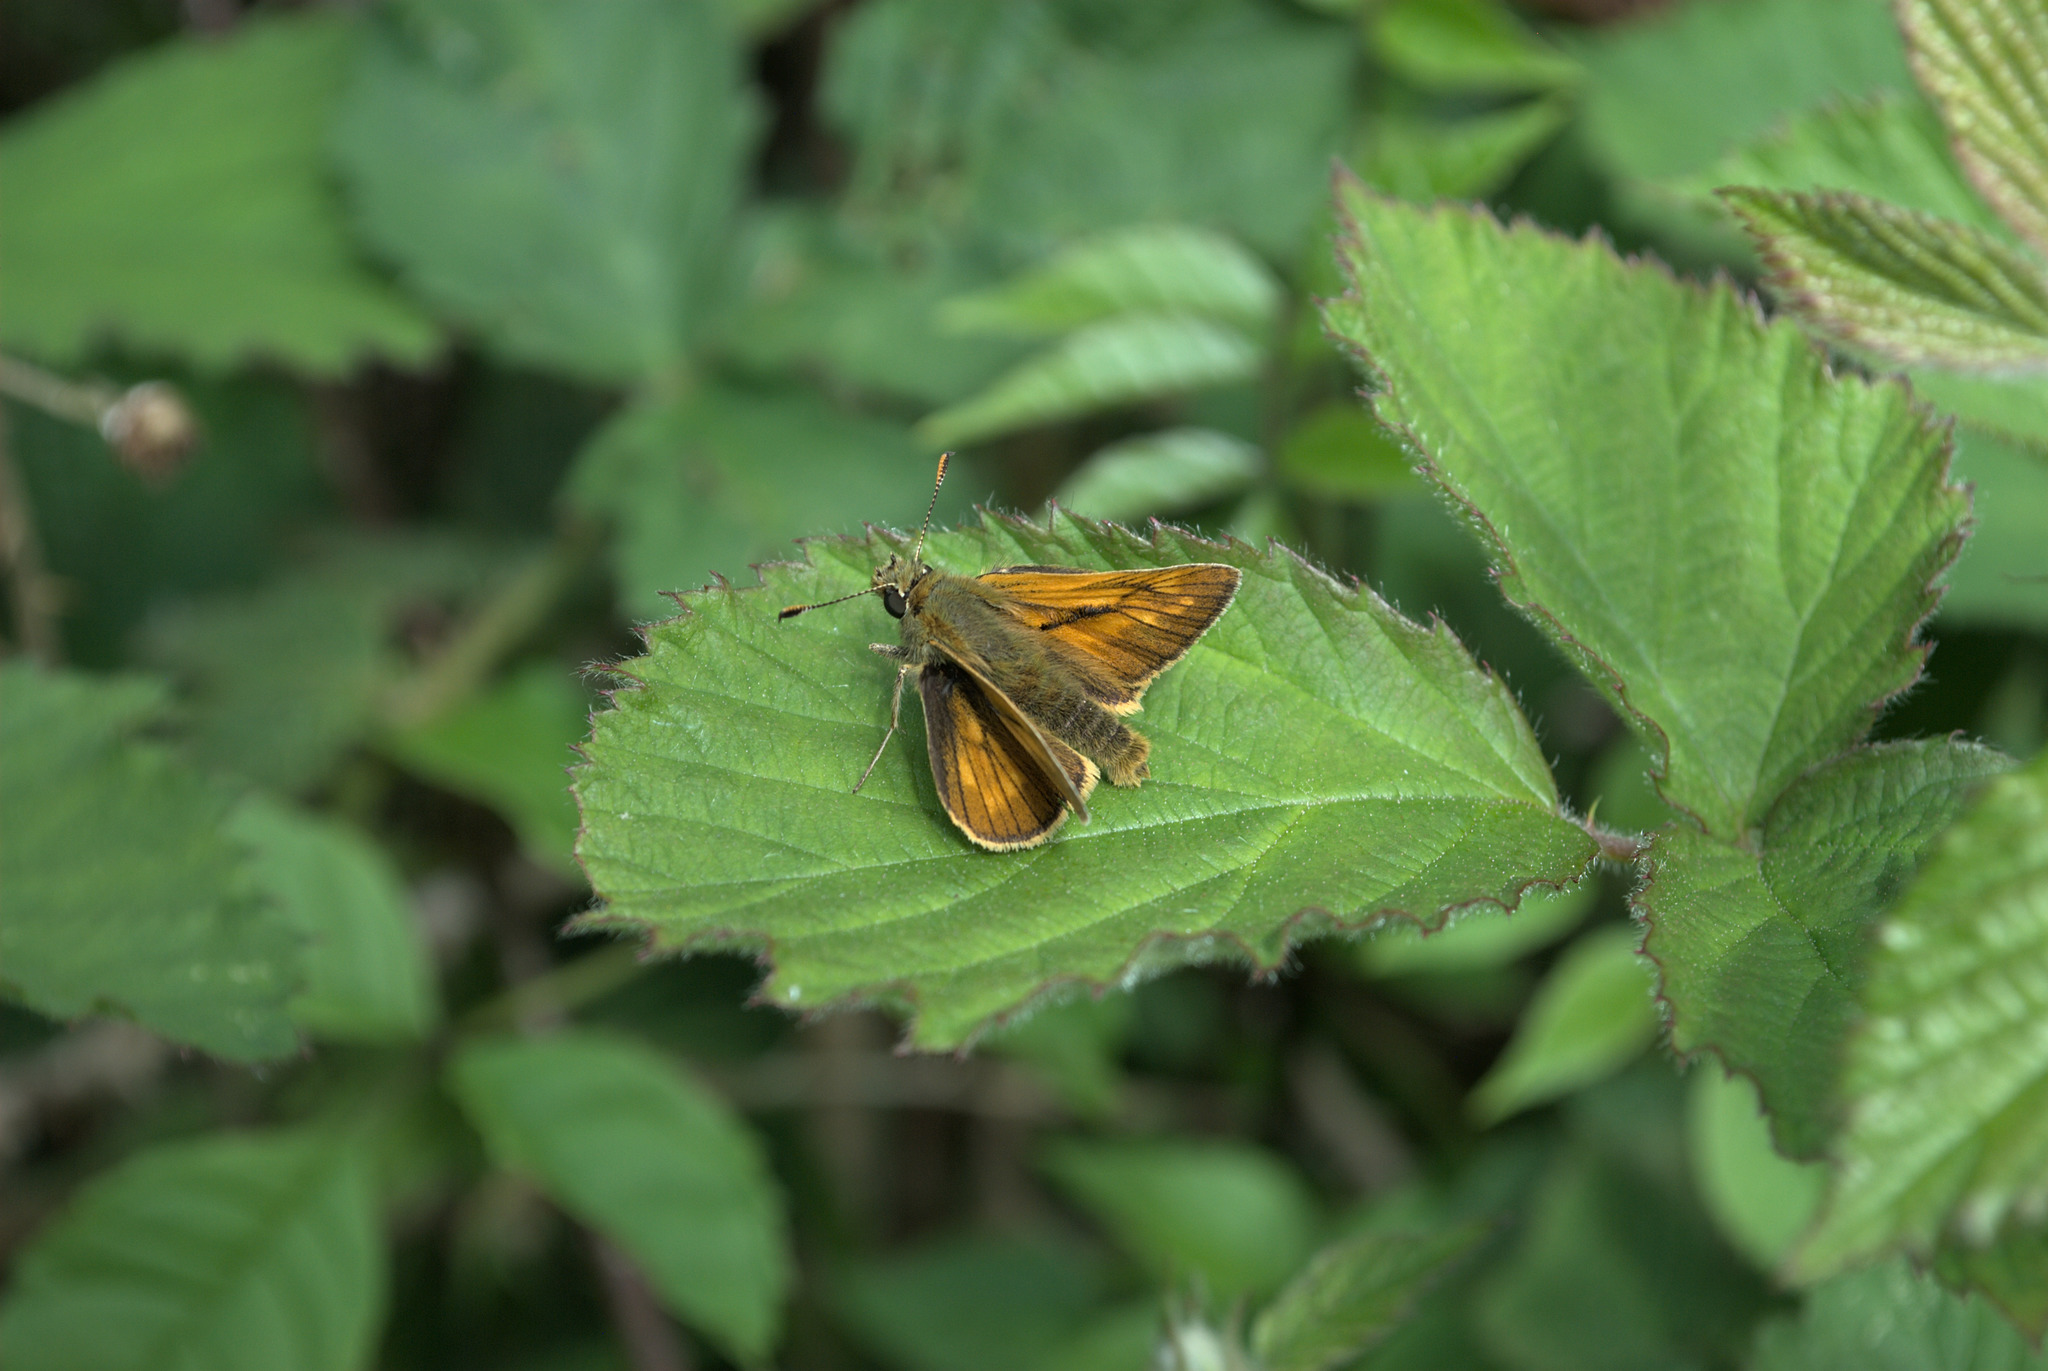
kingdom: Animalia
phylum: Arthropoda
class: Insecta
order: Lepidoptera
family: Hesperiidae
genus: Ochlodes
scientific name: Ochlodes venata
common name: Large skipper
